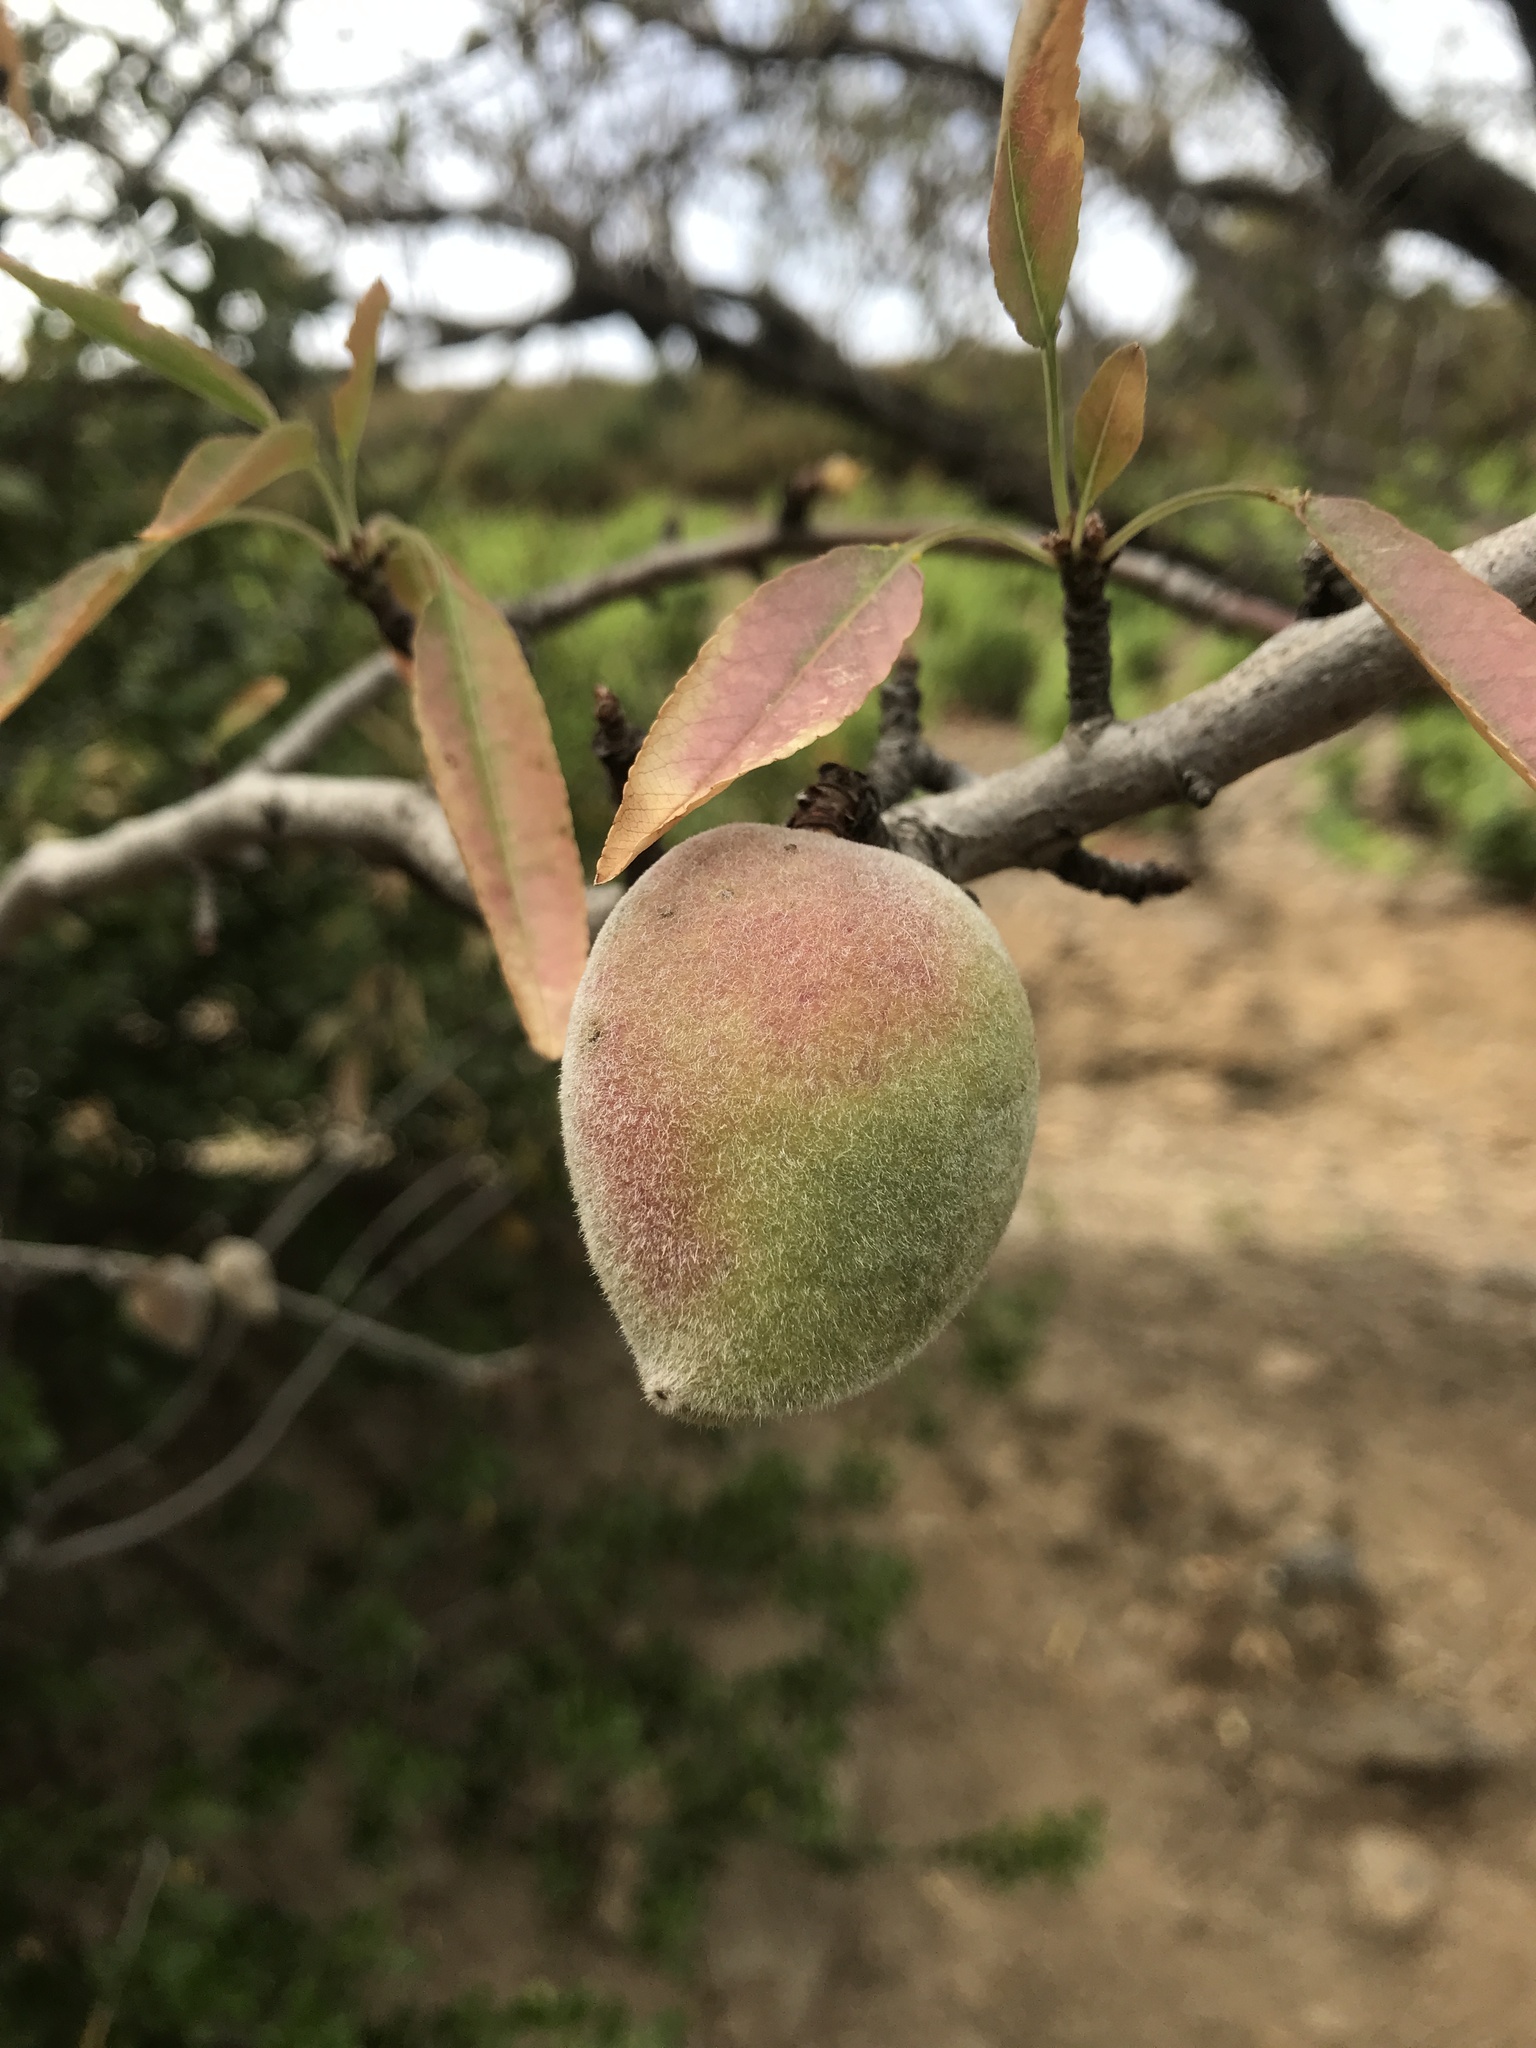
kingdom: Plantae
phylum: Tracheophyta
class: Magnoliopsida
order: Rosales
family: Rosaceae
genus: Prunus
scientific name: Prunus amygdalus
